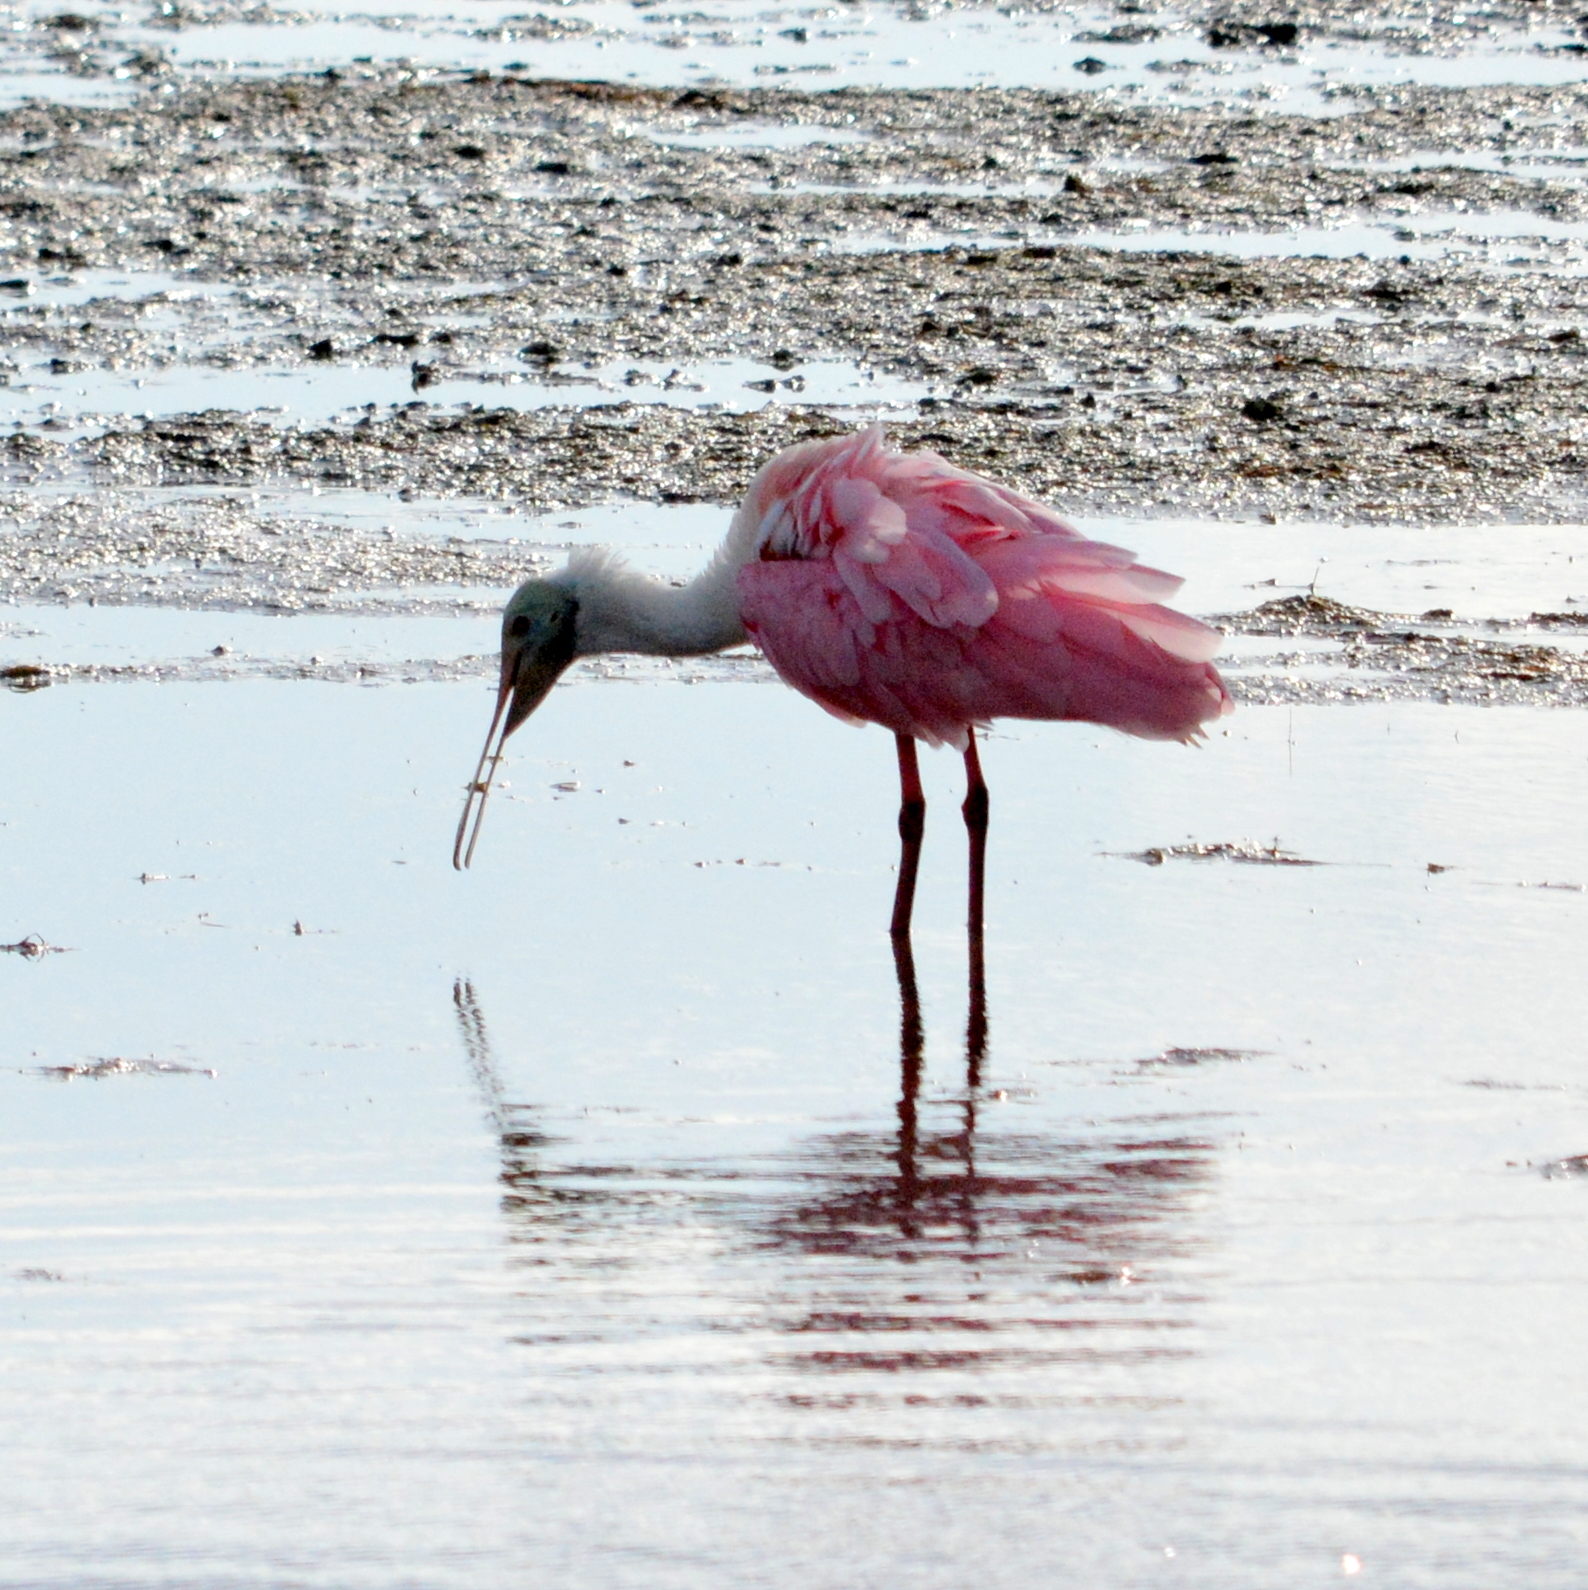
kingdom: Animalia
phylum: Chordata
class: Aves
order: Pelecaniformes
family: Threskiornithidae
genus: Platalea
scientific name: Platalea ajaja
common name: Roseate spoonbill
